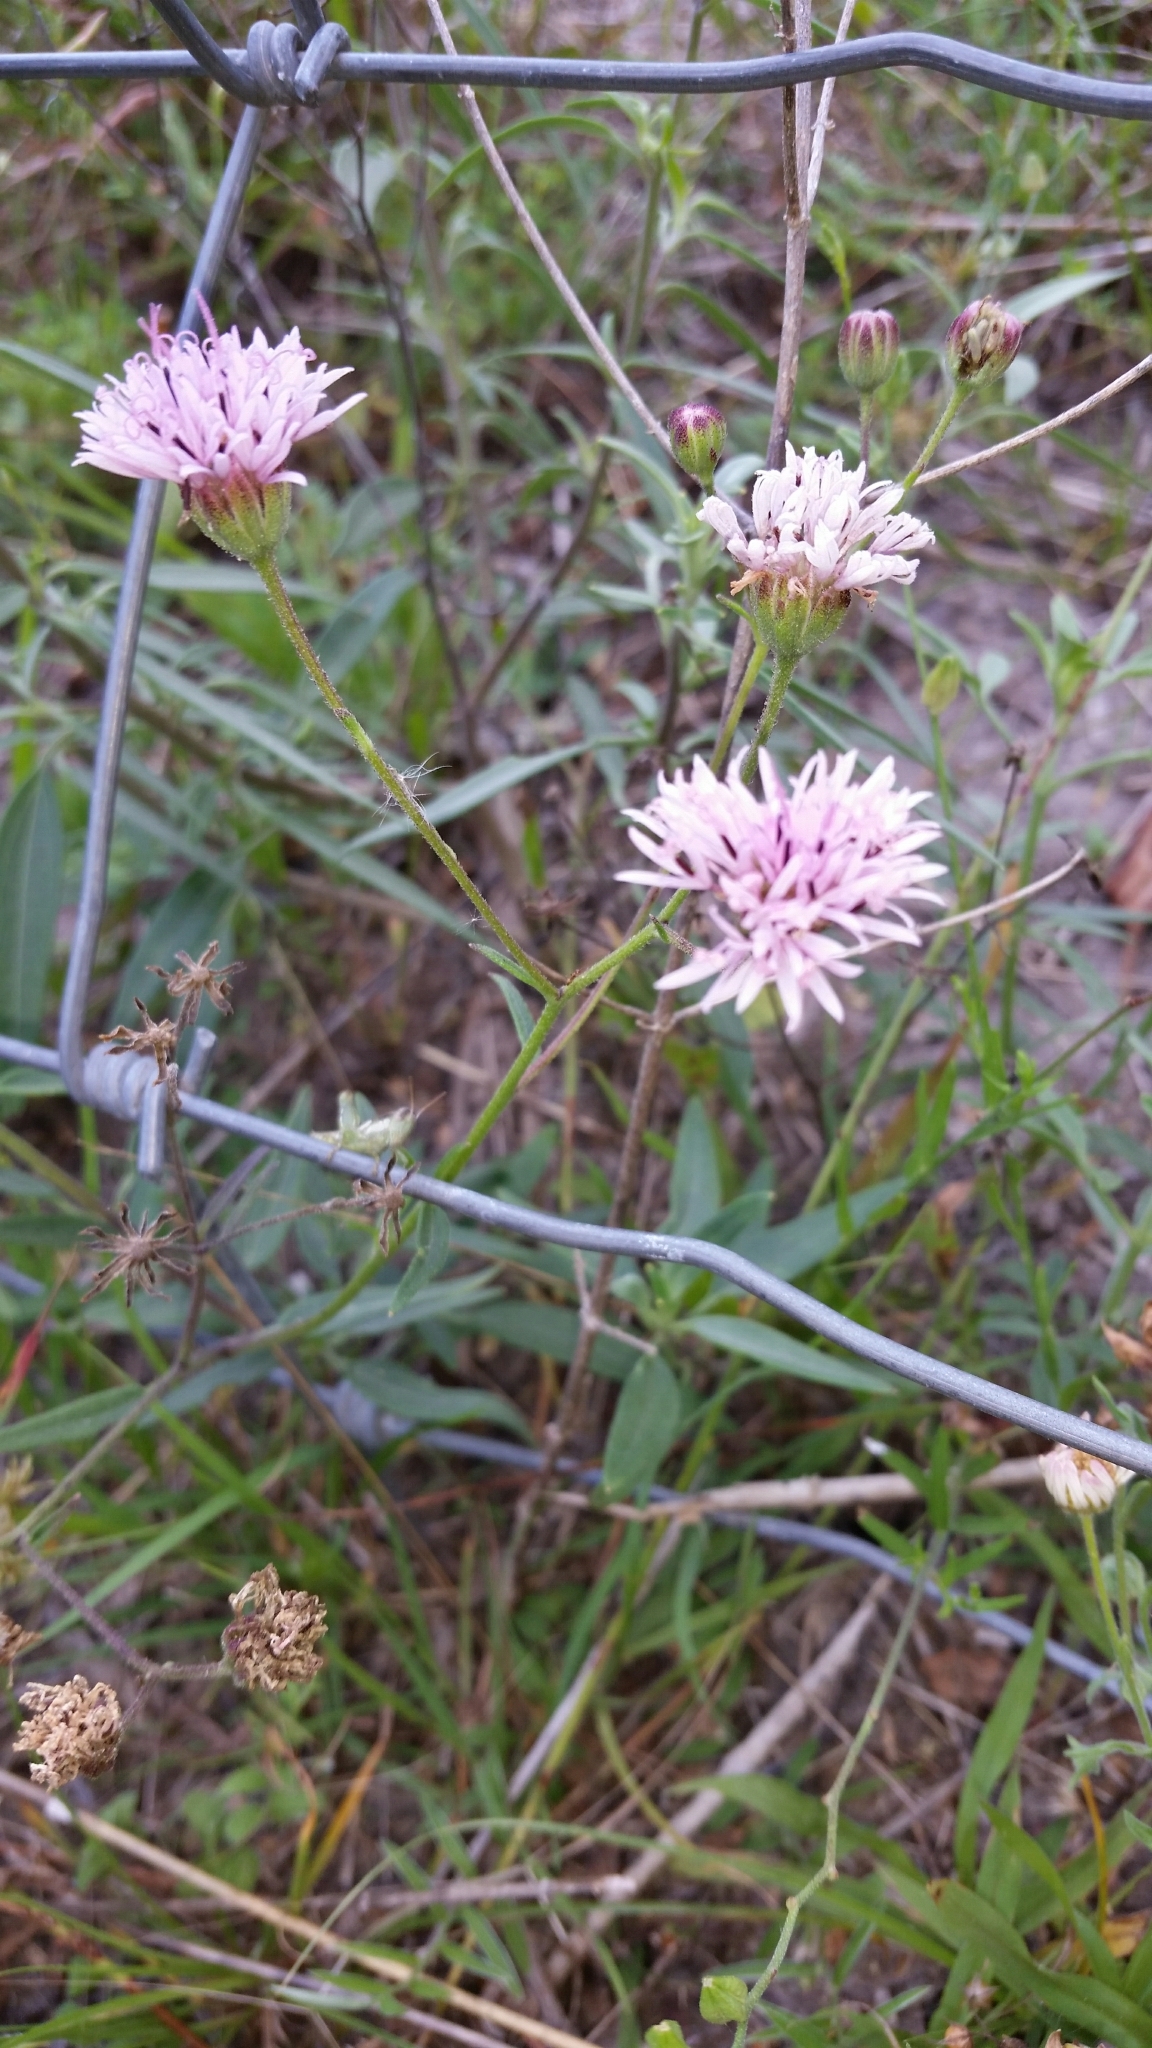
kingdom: Plantae
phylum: Tracheophyta
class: Magnoliopsida
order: Asterales
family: Asteraceae
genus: Palafoxia
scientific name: Palafoxia texana
